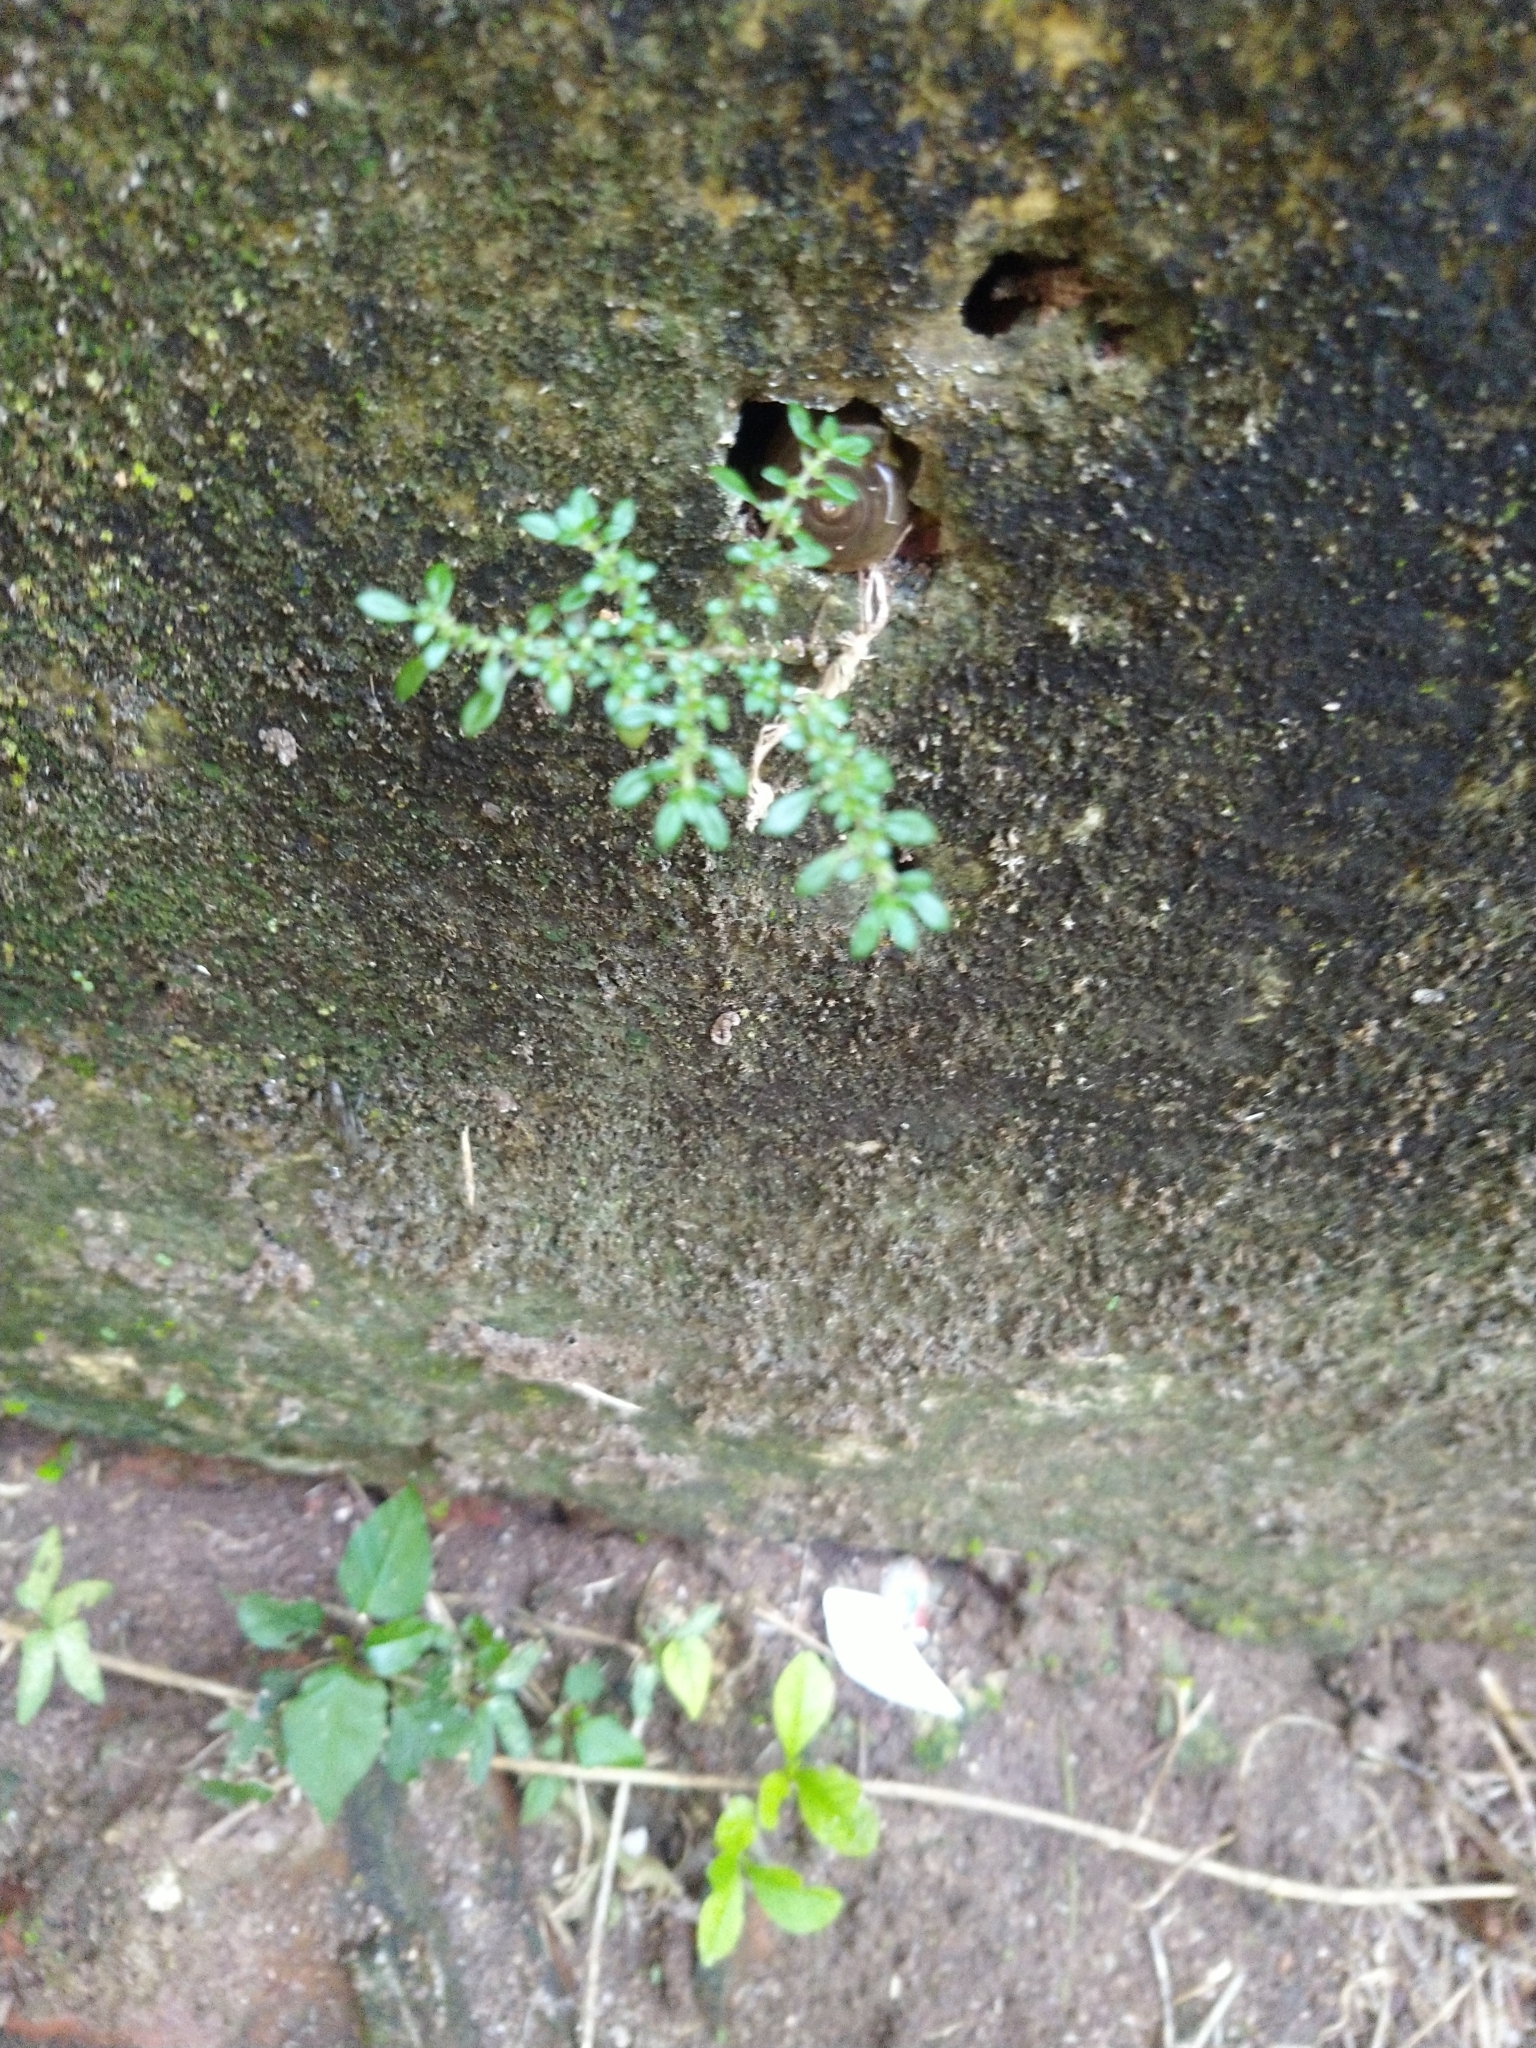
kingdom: Plantae
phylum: Tracheophyta
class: Magnoliopsida
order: Rosales
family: Urticaceae
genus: Pilea
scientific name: Pilea microphylla
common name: Artillery-plant
